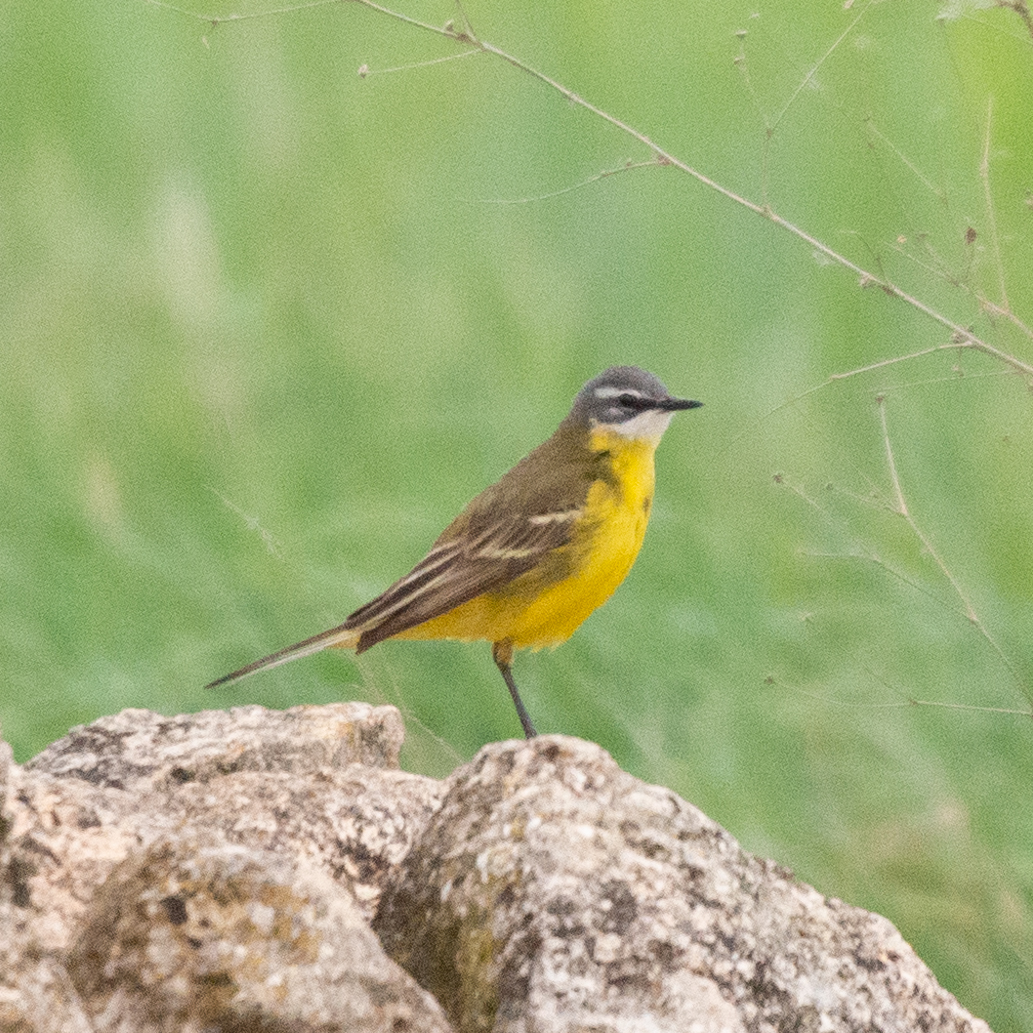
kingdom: Animalia
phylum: Chordata
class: Aves
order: Passeriformes
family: Motacillidae
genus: Motacilla
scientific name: Motacilla flava
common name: Western yellow wagtail
